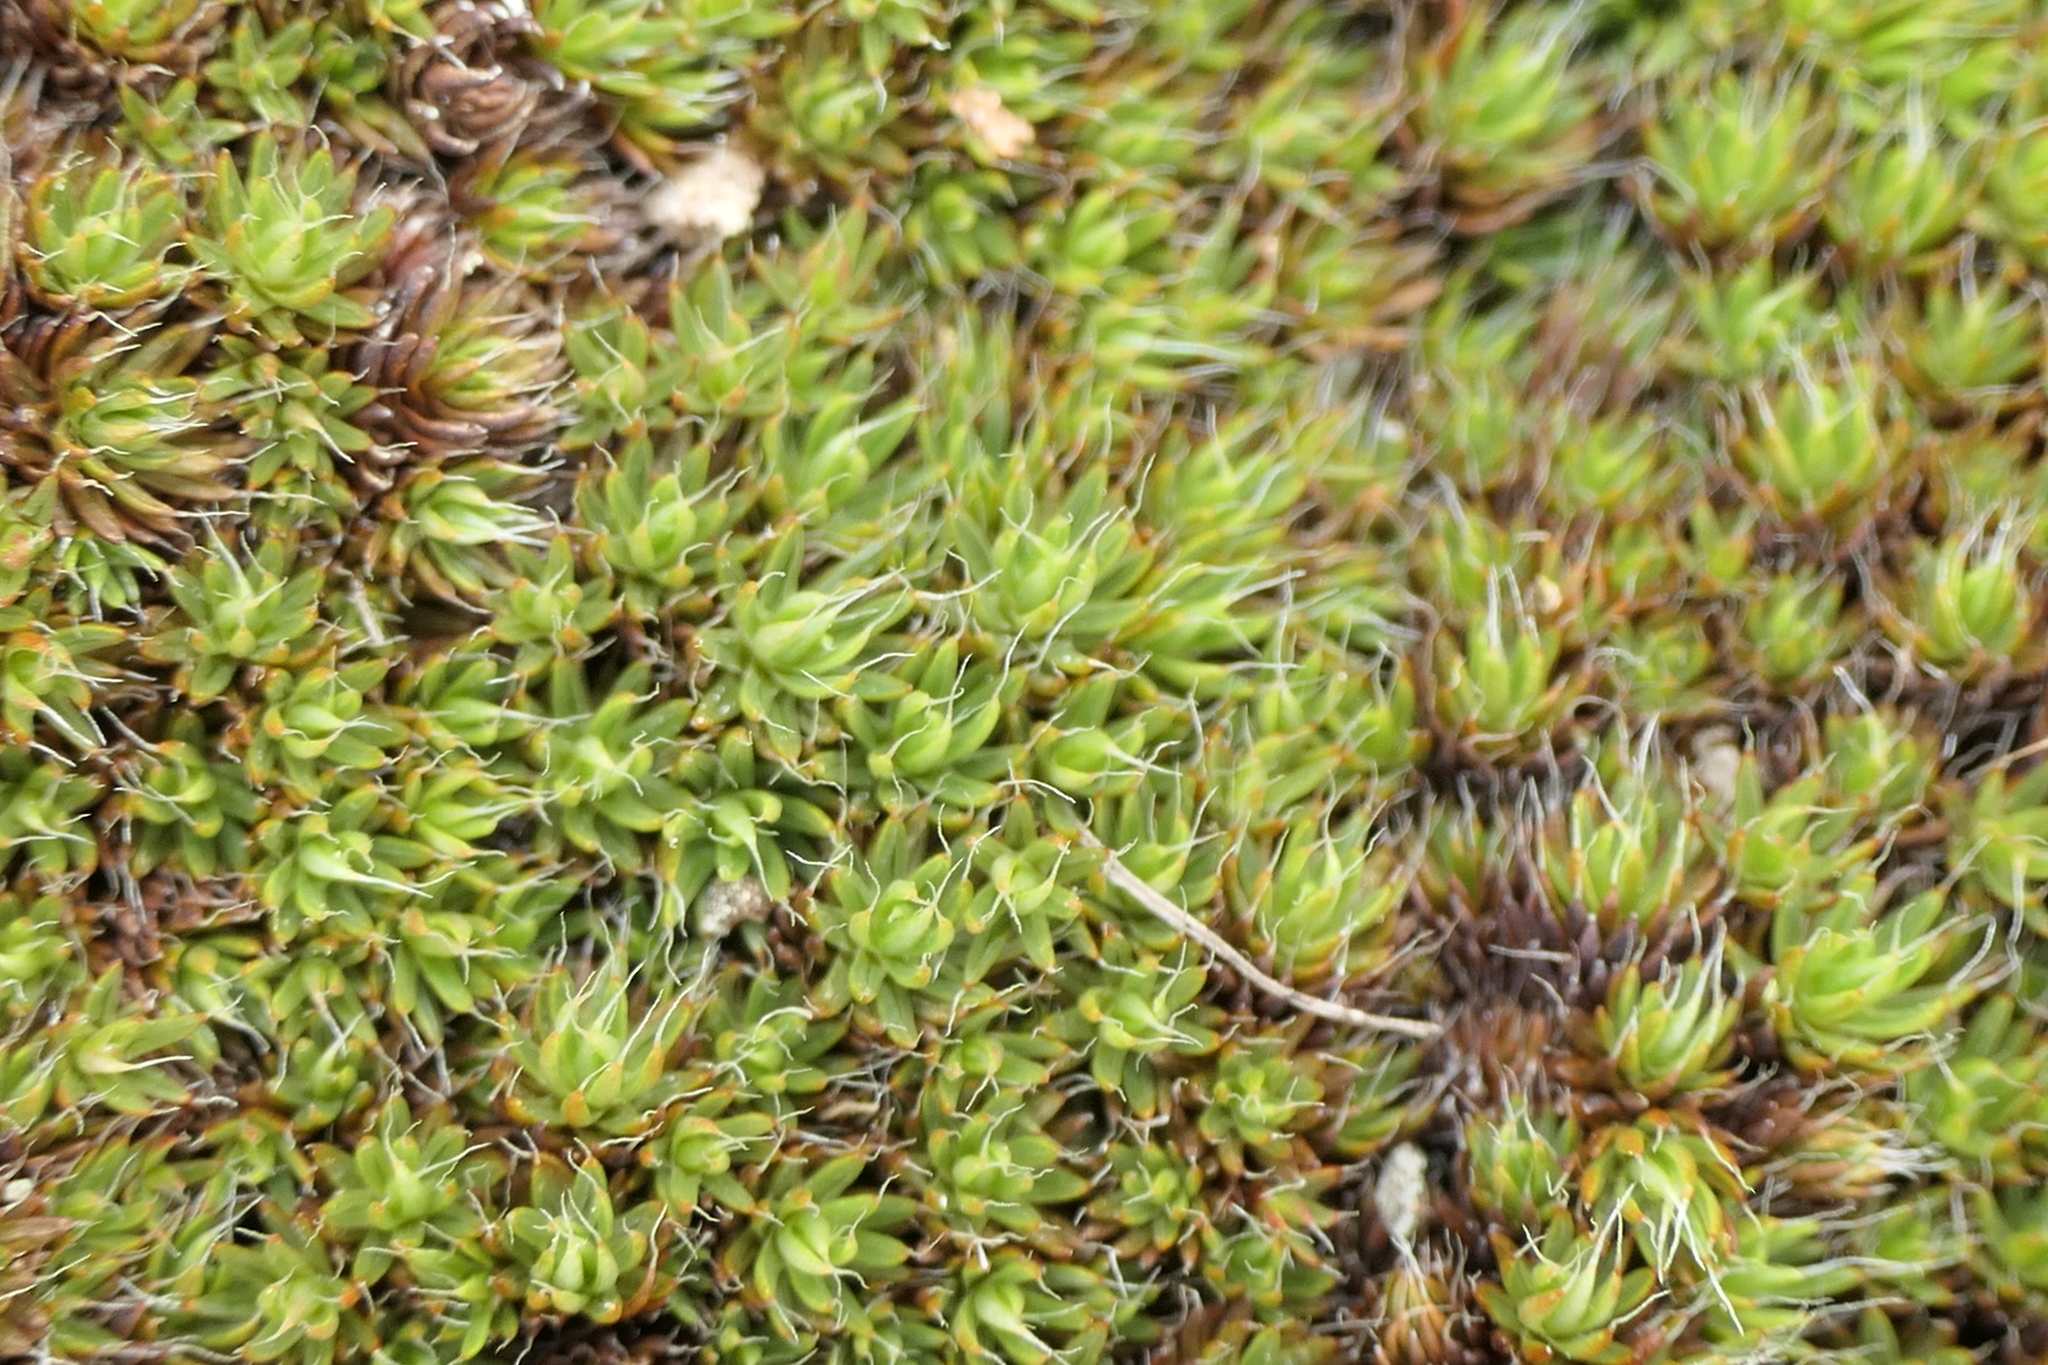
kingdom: Plantae
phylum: Bryophyta
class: Polytrichopsida
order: Polytrichales
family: Polytrichaceae
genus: Polytrichum
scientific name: Polytrichum piliferum
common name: Bristly haircap
